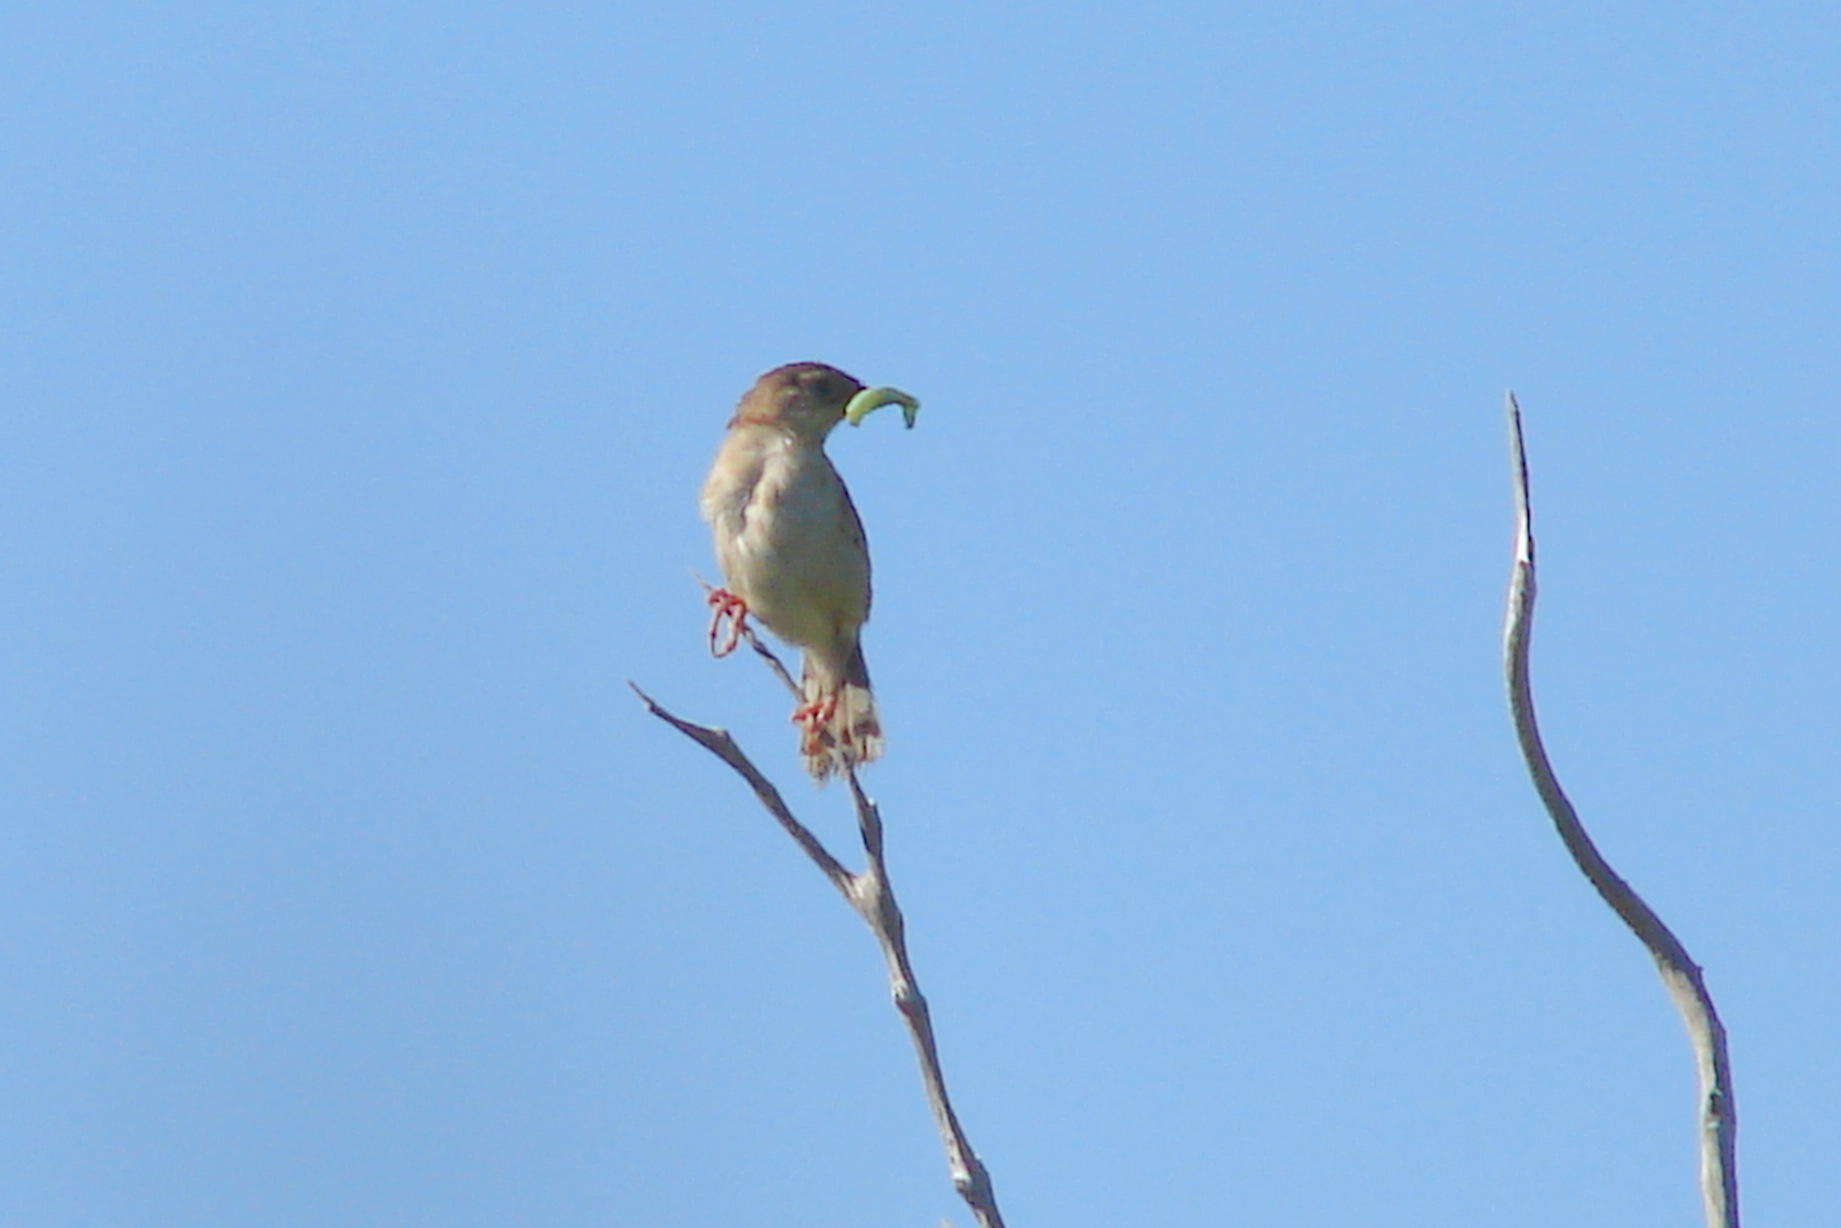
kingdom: Animalia
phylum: Chordata
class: Aves
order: Passeriformes
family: Cisticolidae
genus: Cisticola
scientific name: Cisticola cherina
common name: Madagascar cisticola
